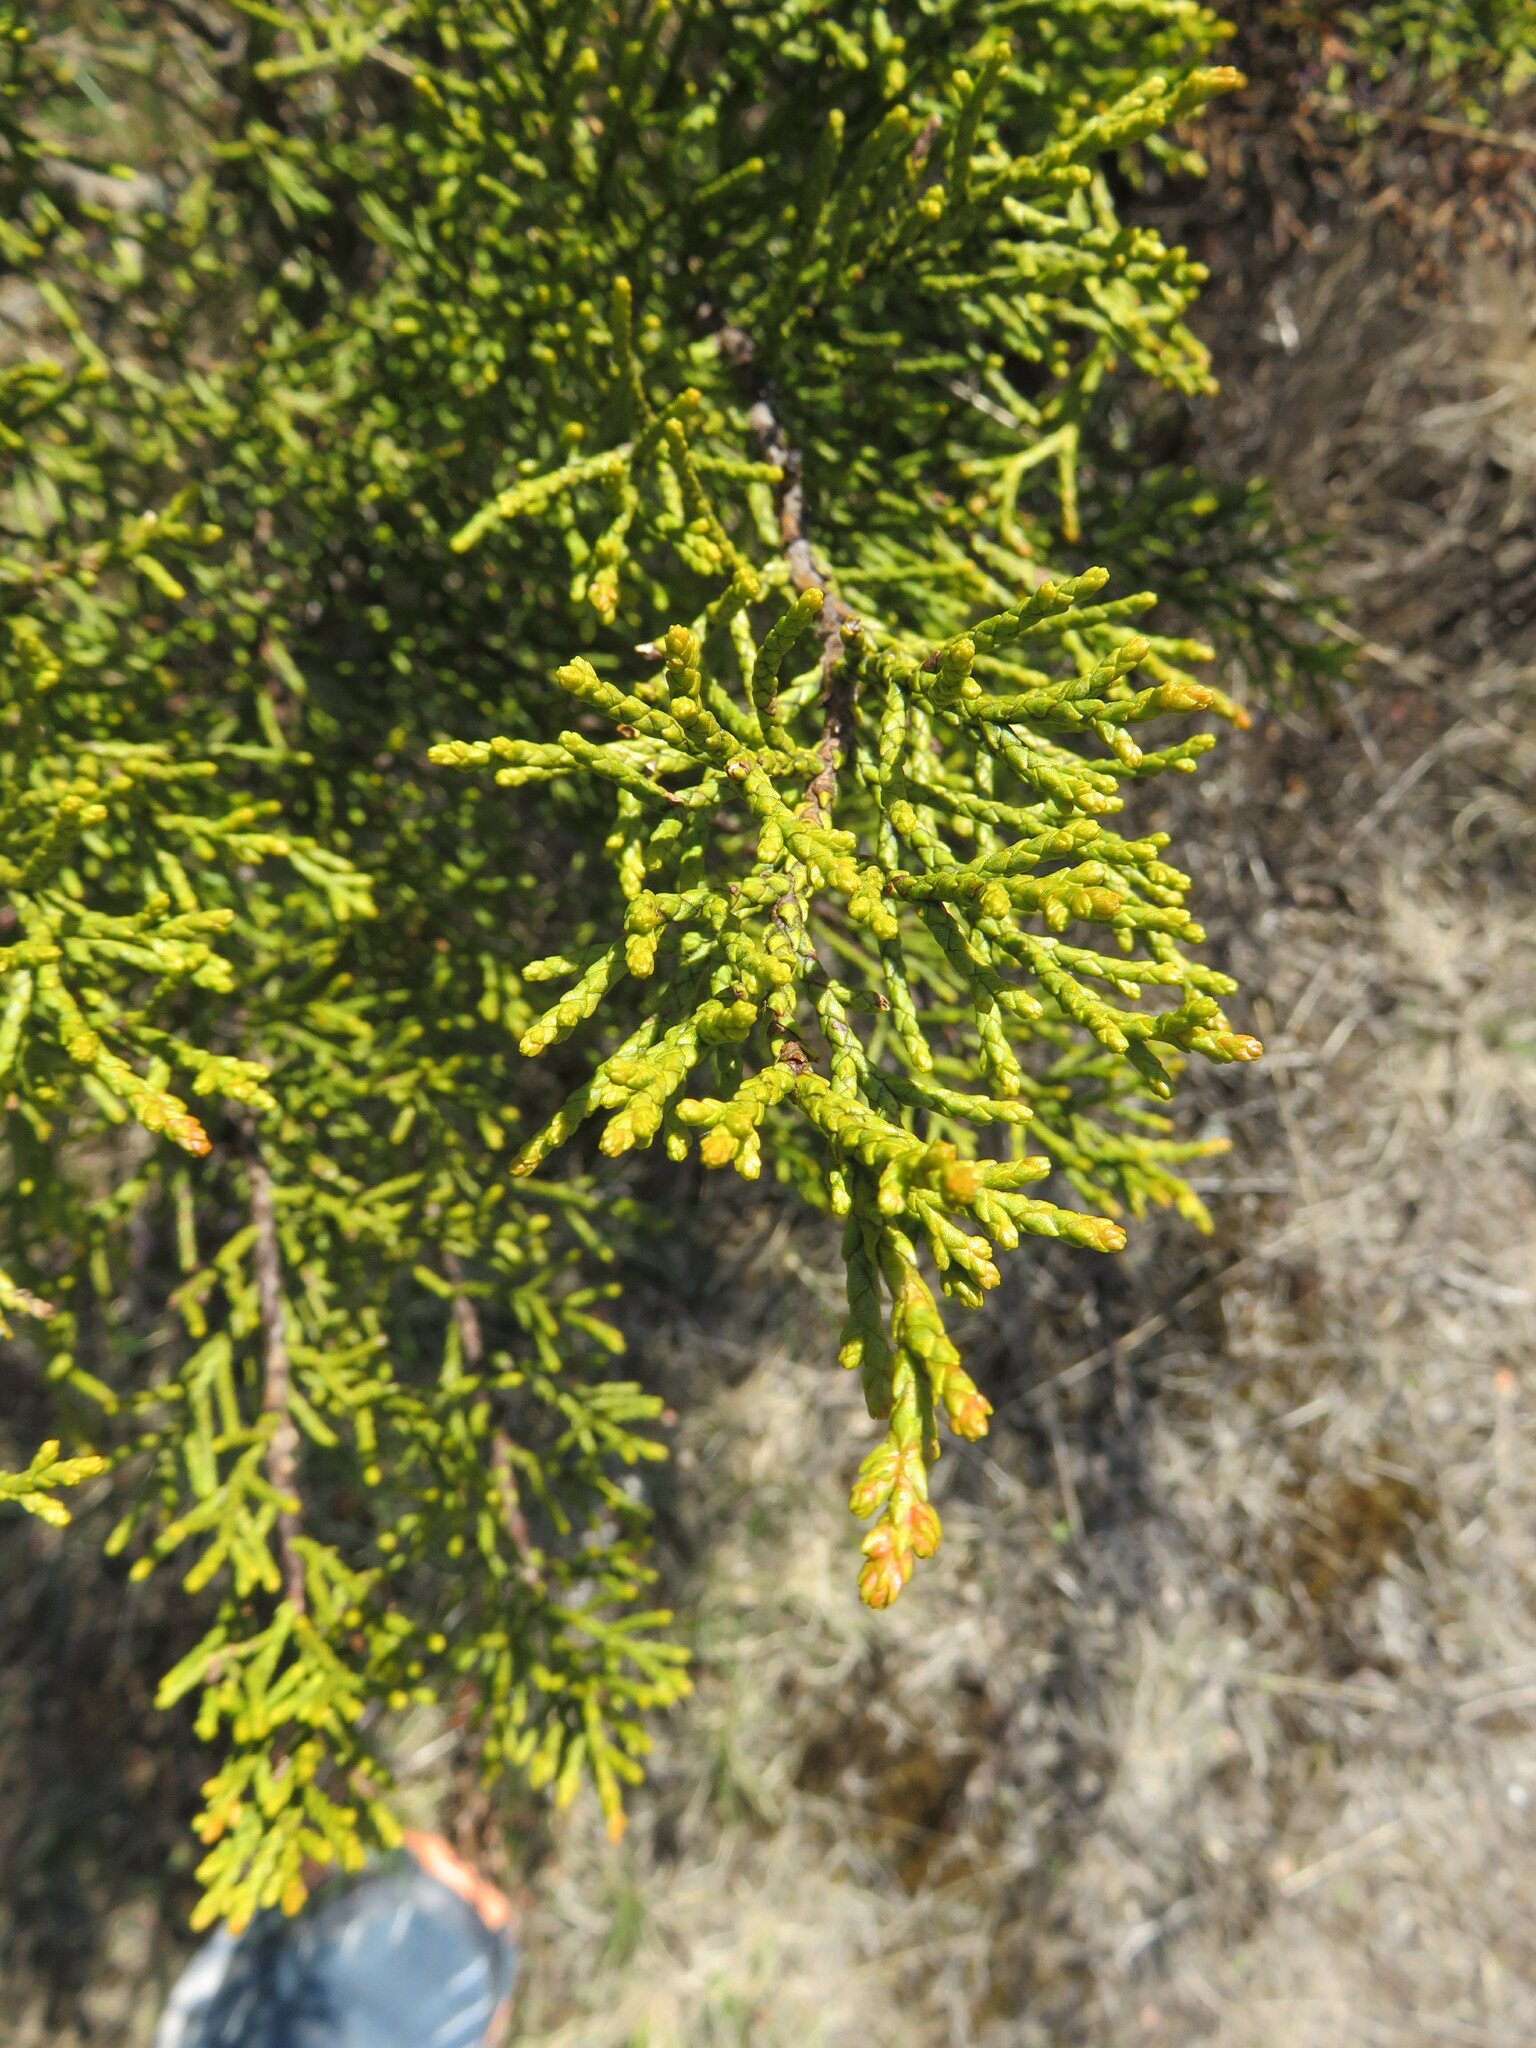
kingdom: Plantae
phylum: Tracheophyta
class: Pinopsida
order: Pinales
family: Podocarpaceae
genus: Halocarpus
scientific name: Halocarpus bidwillii
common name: Bog pine
